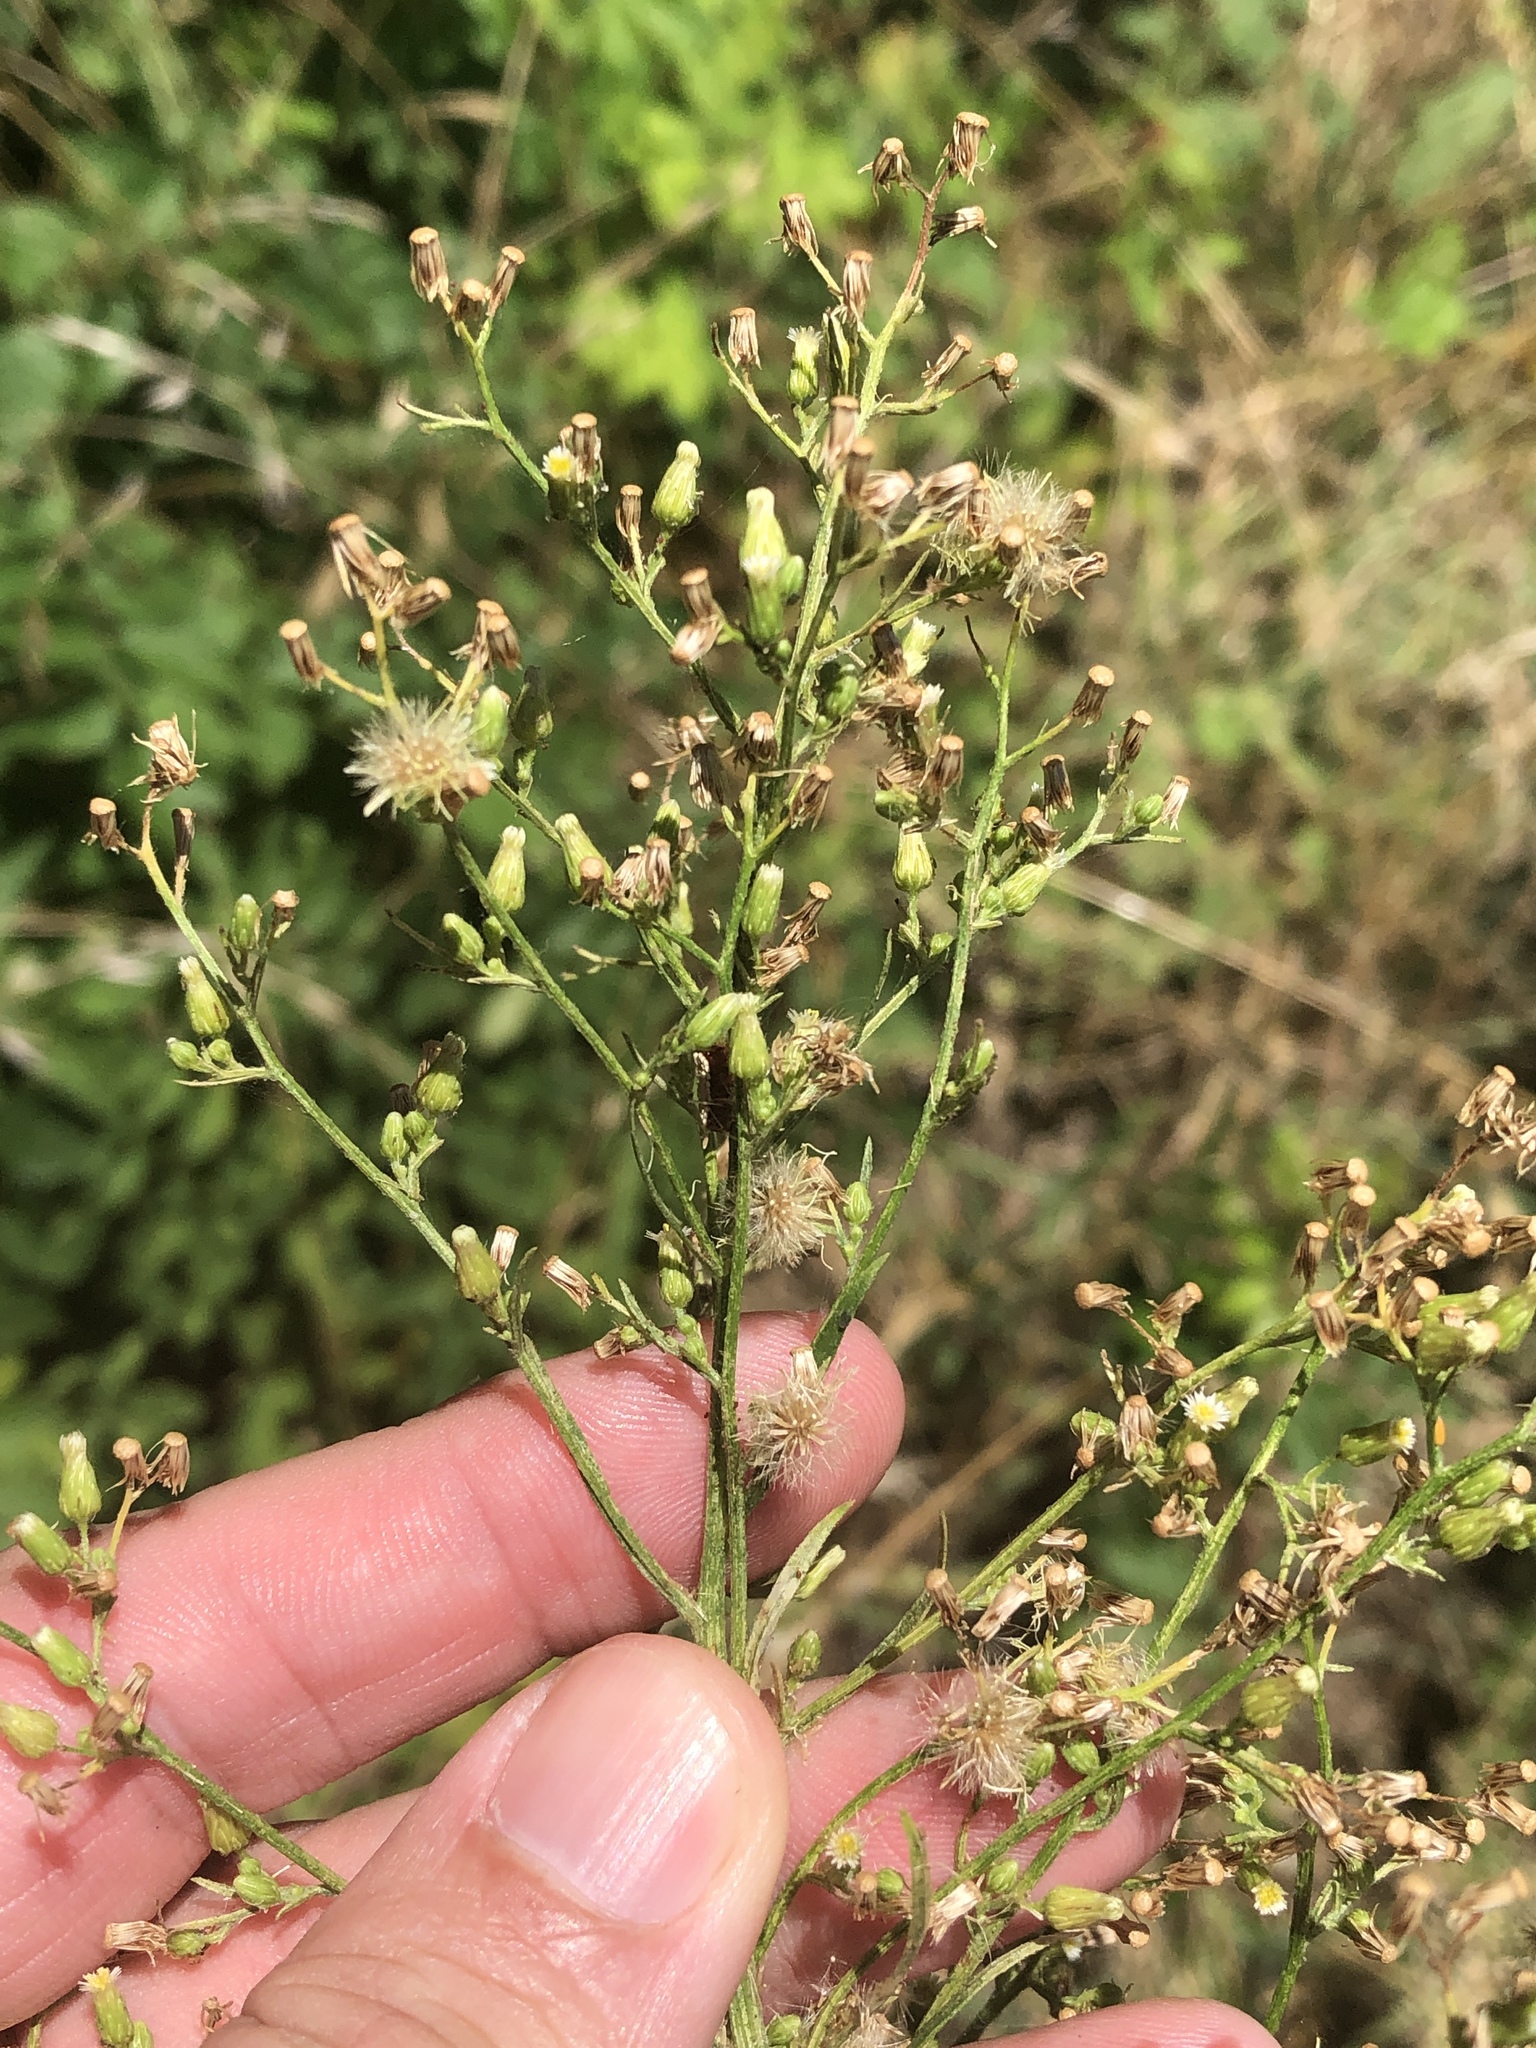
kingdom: Plantae
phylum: Tracheophyta
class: Magnoliopsida
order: Asterales
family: Asteraceae
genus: Erigeron
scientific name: Erigeron canadensis
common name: Canadian fleabane
